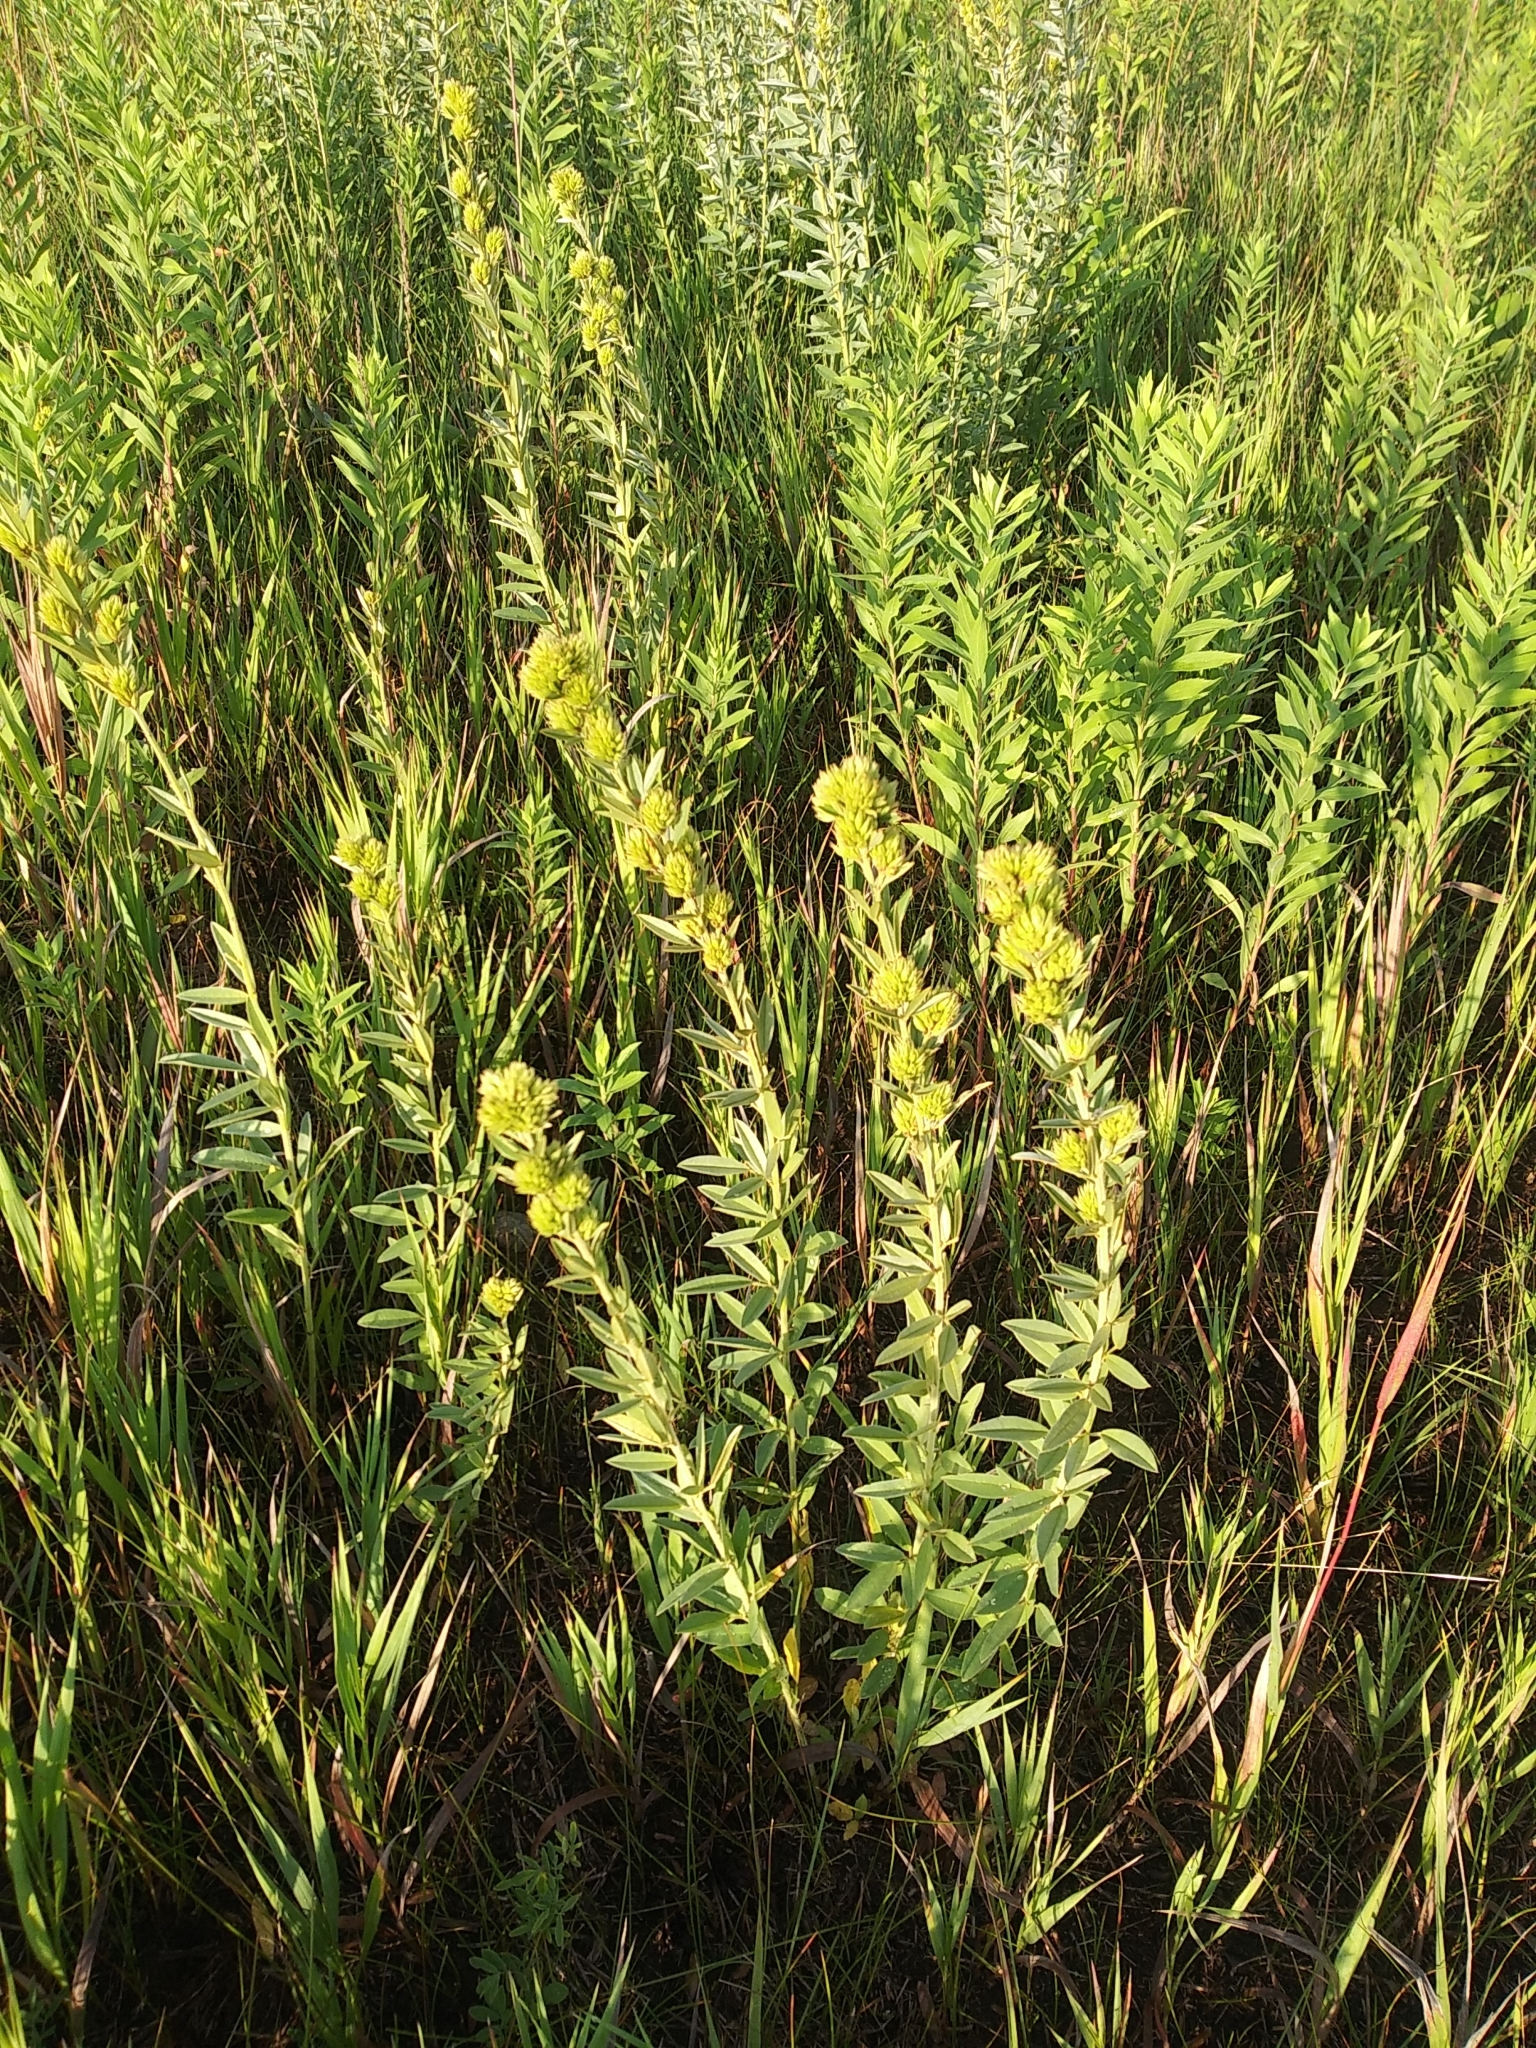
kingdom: Plantae
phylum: Tracheophyta
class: Magnoliopsida
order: Fabales
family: Fabaceae
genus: Lespedeza
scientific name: Lespedeza capitata
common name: Dusty clover
